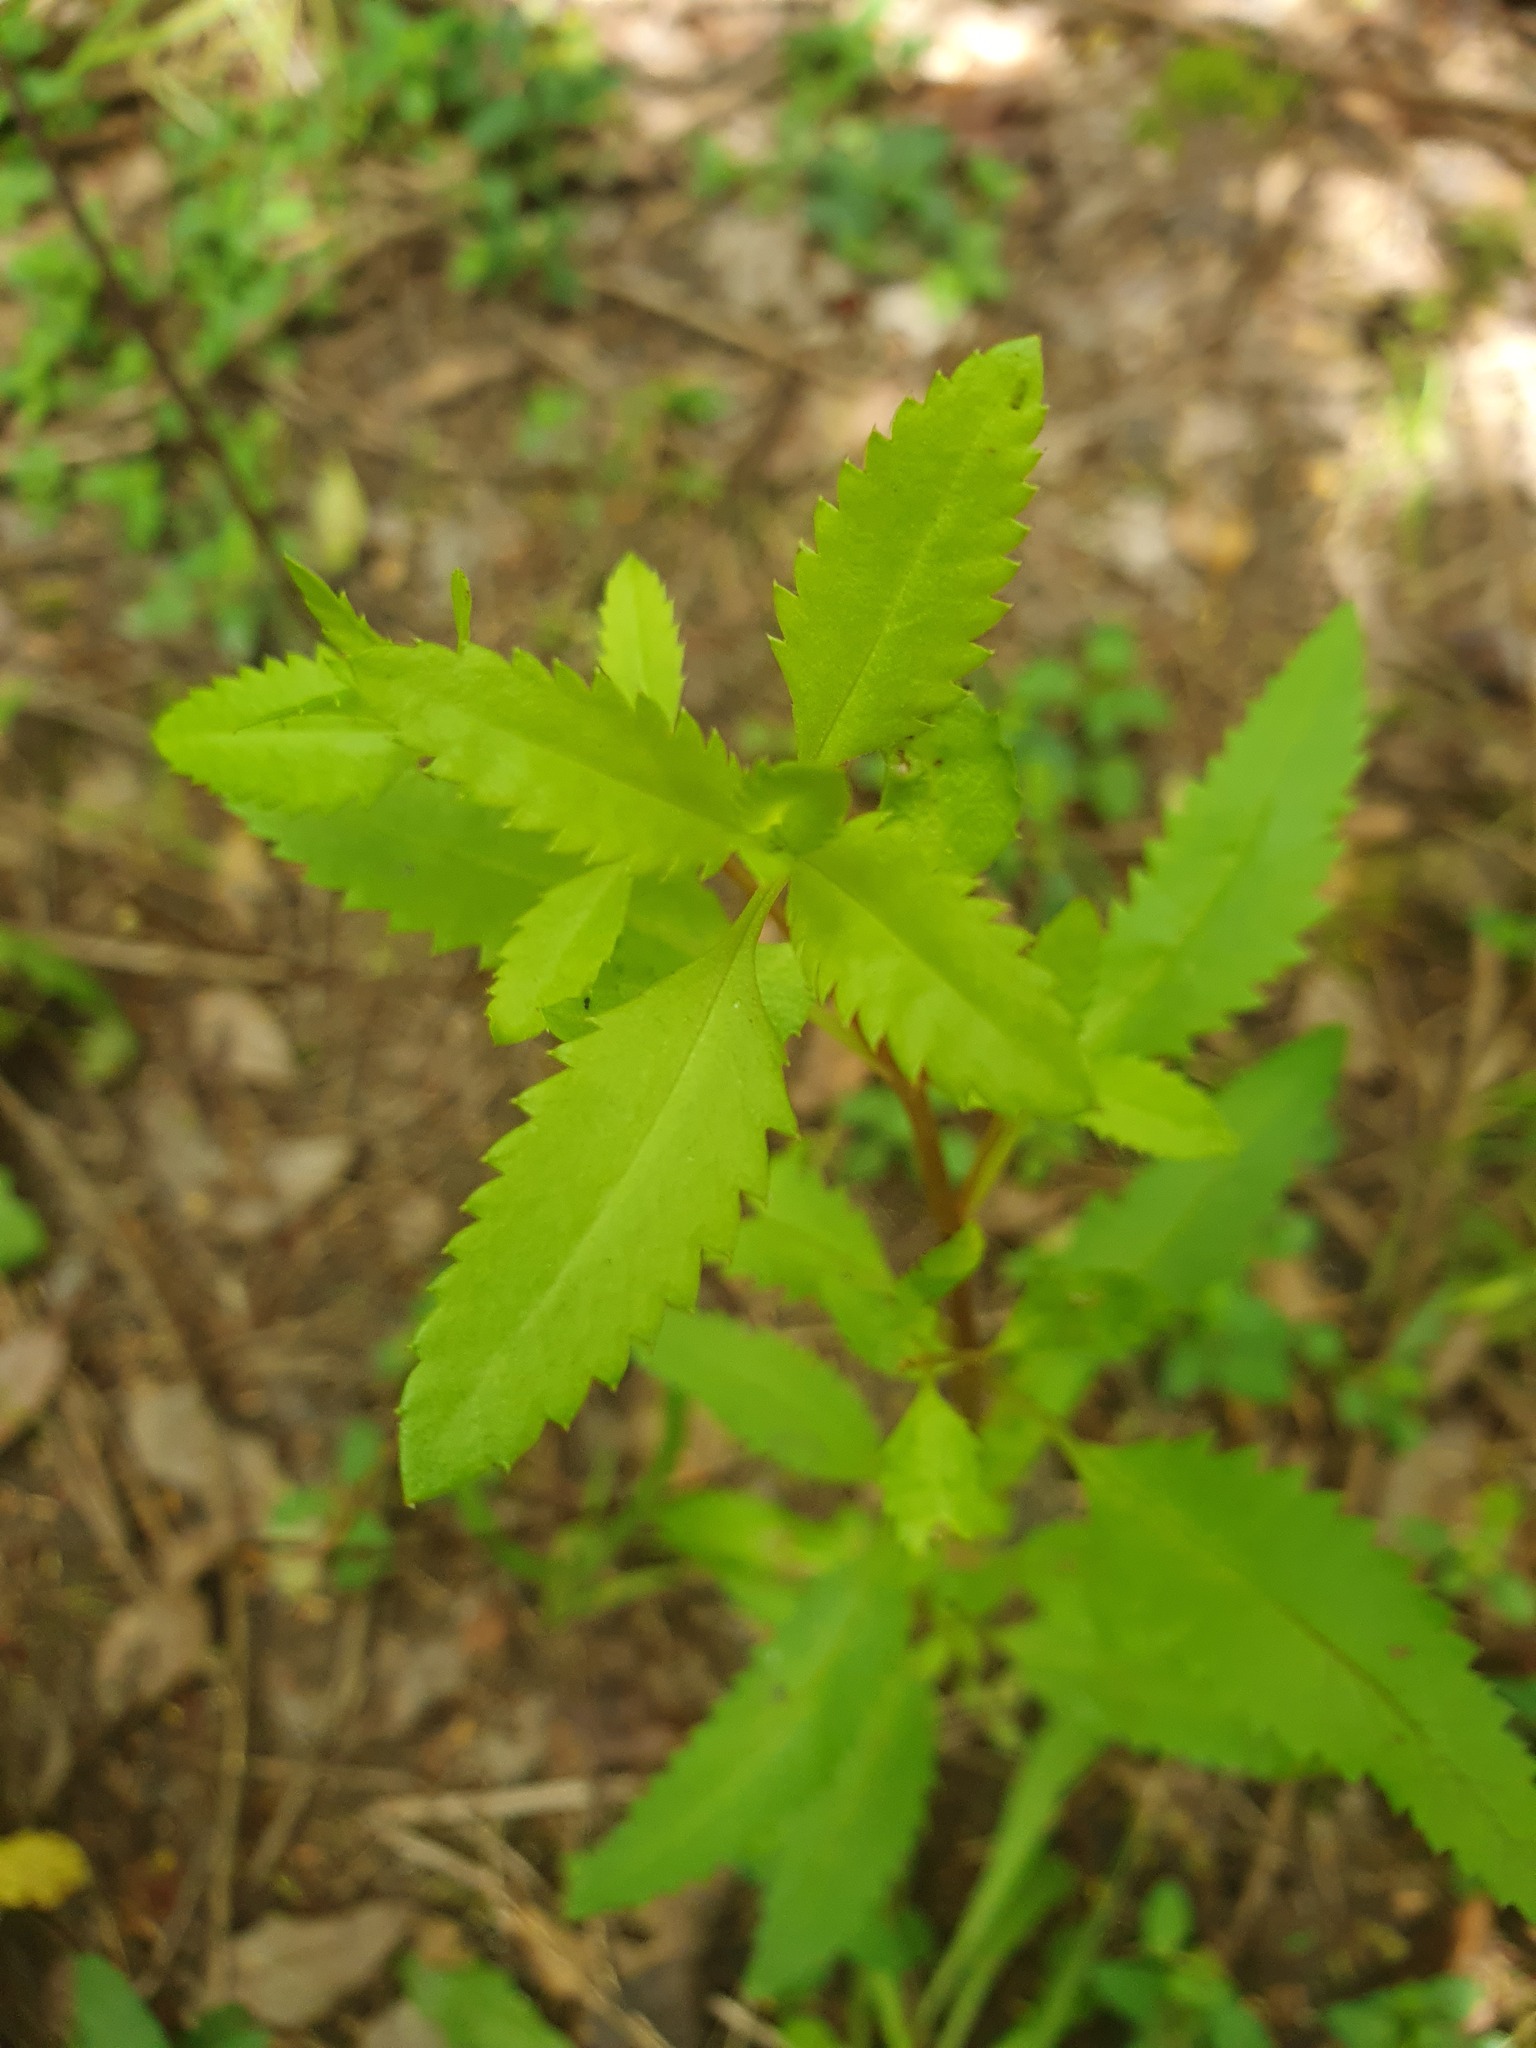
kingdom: Plantae
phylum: Tracheophyta
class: Magnoliopsida
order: Saxifragales
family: Haloragaceae
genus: Haloragis
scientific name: Haloragis erecta
